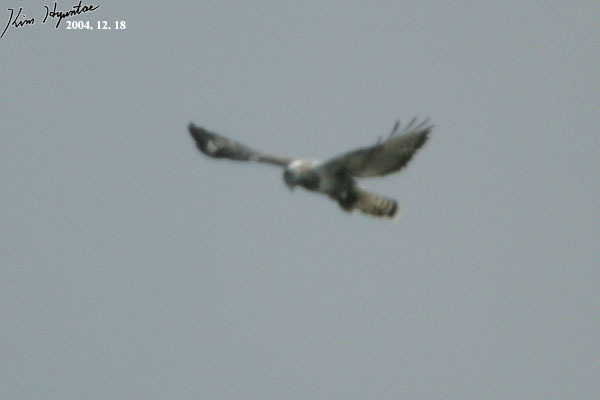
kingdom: Animalia
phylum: Chordata
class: Aves
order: Accipitriformes
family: Accipitridae
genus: Buteo
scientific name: Buteo lagopus
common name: Rough-legged buzzard
